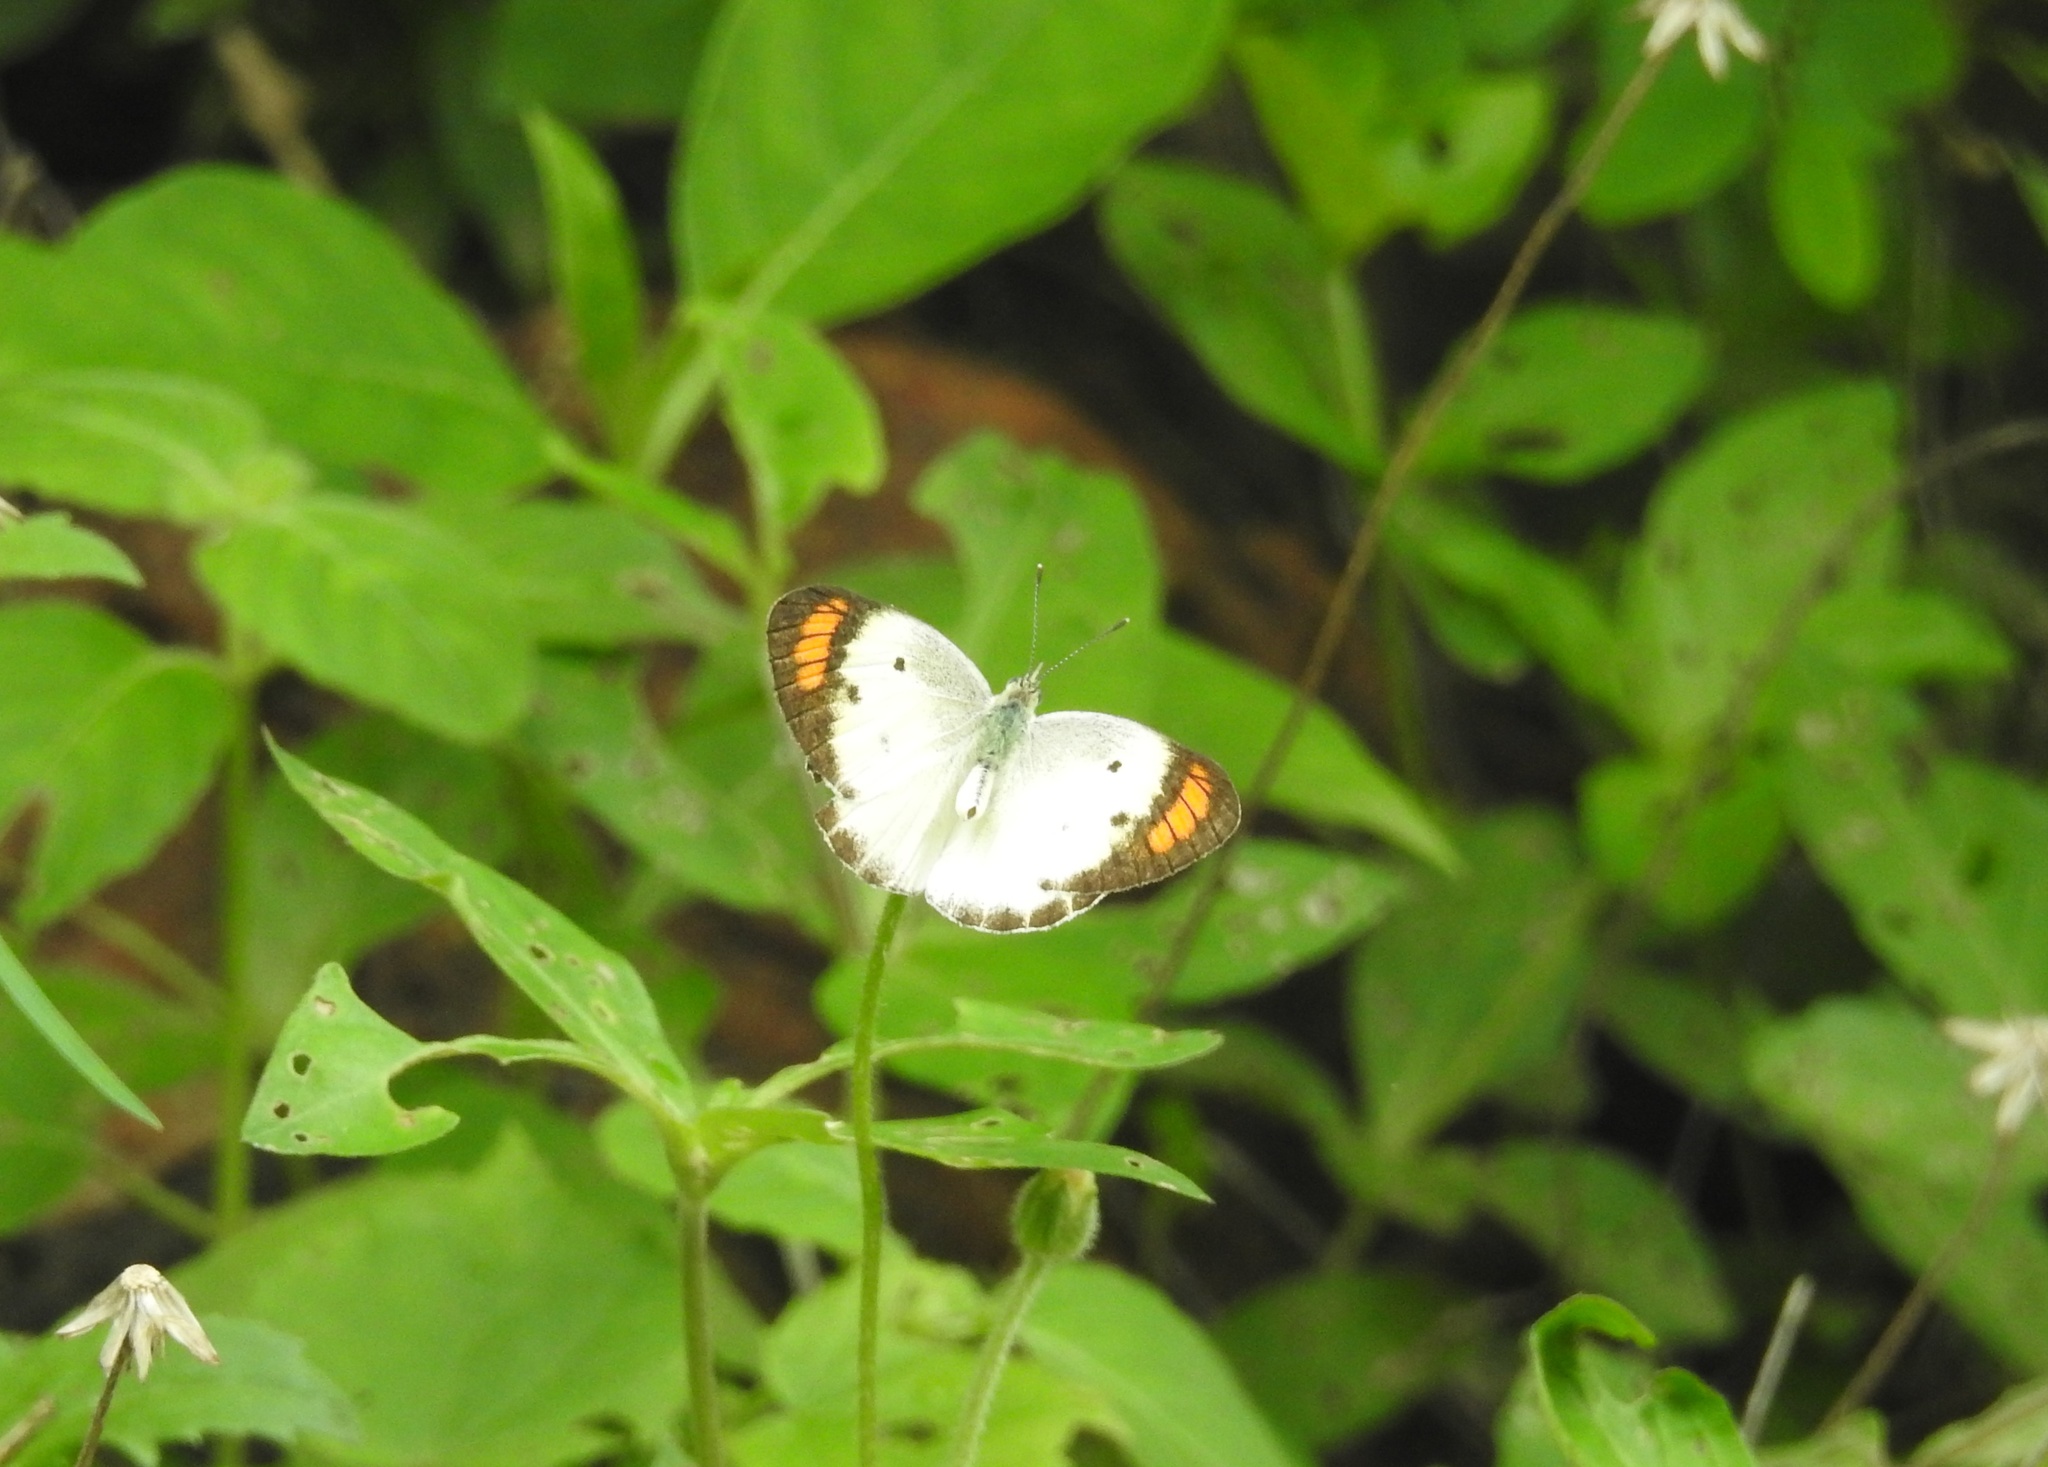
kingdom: Animalia
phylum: Arthropoda
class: Insecta
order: Lepidoptera
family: Pieridae
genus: Colotis
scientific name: Colotis etrida
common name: Little orange tip
